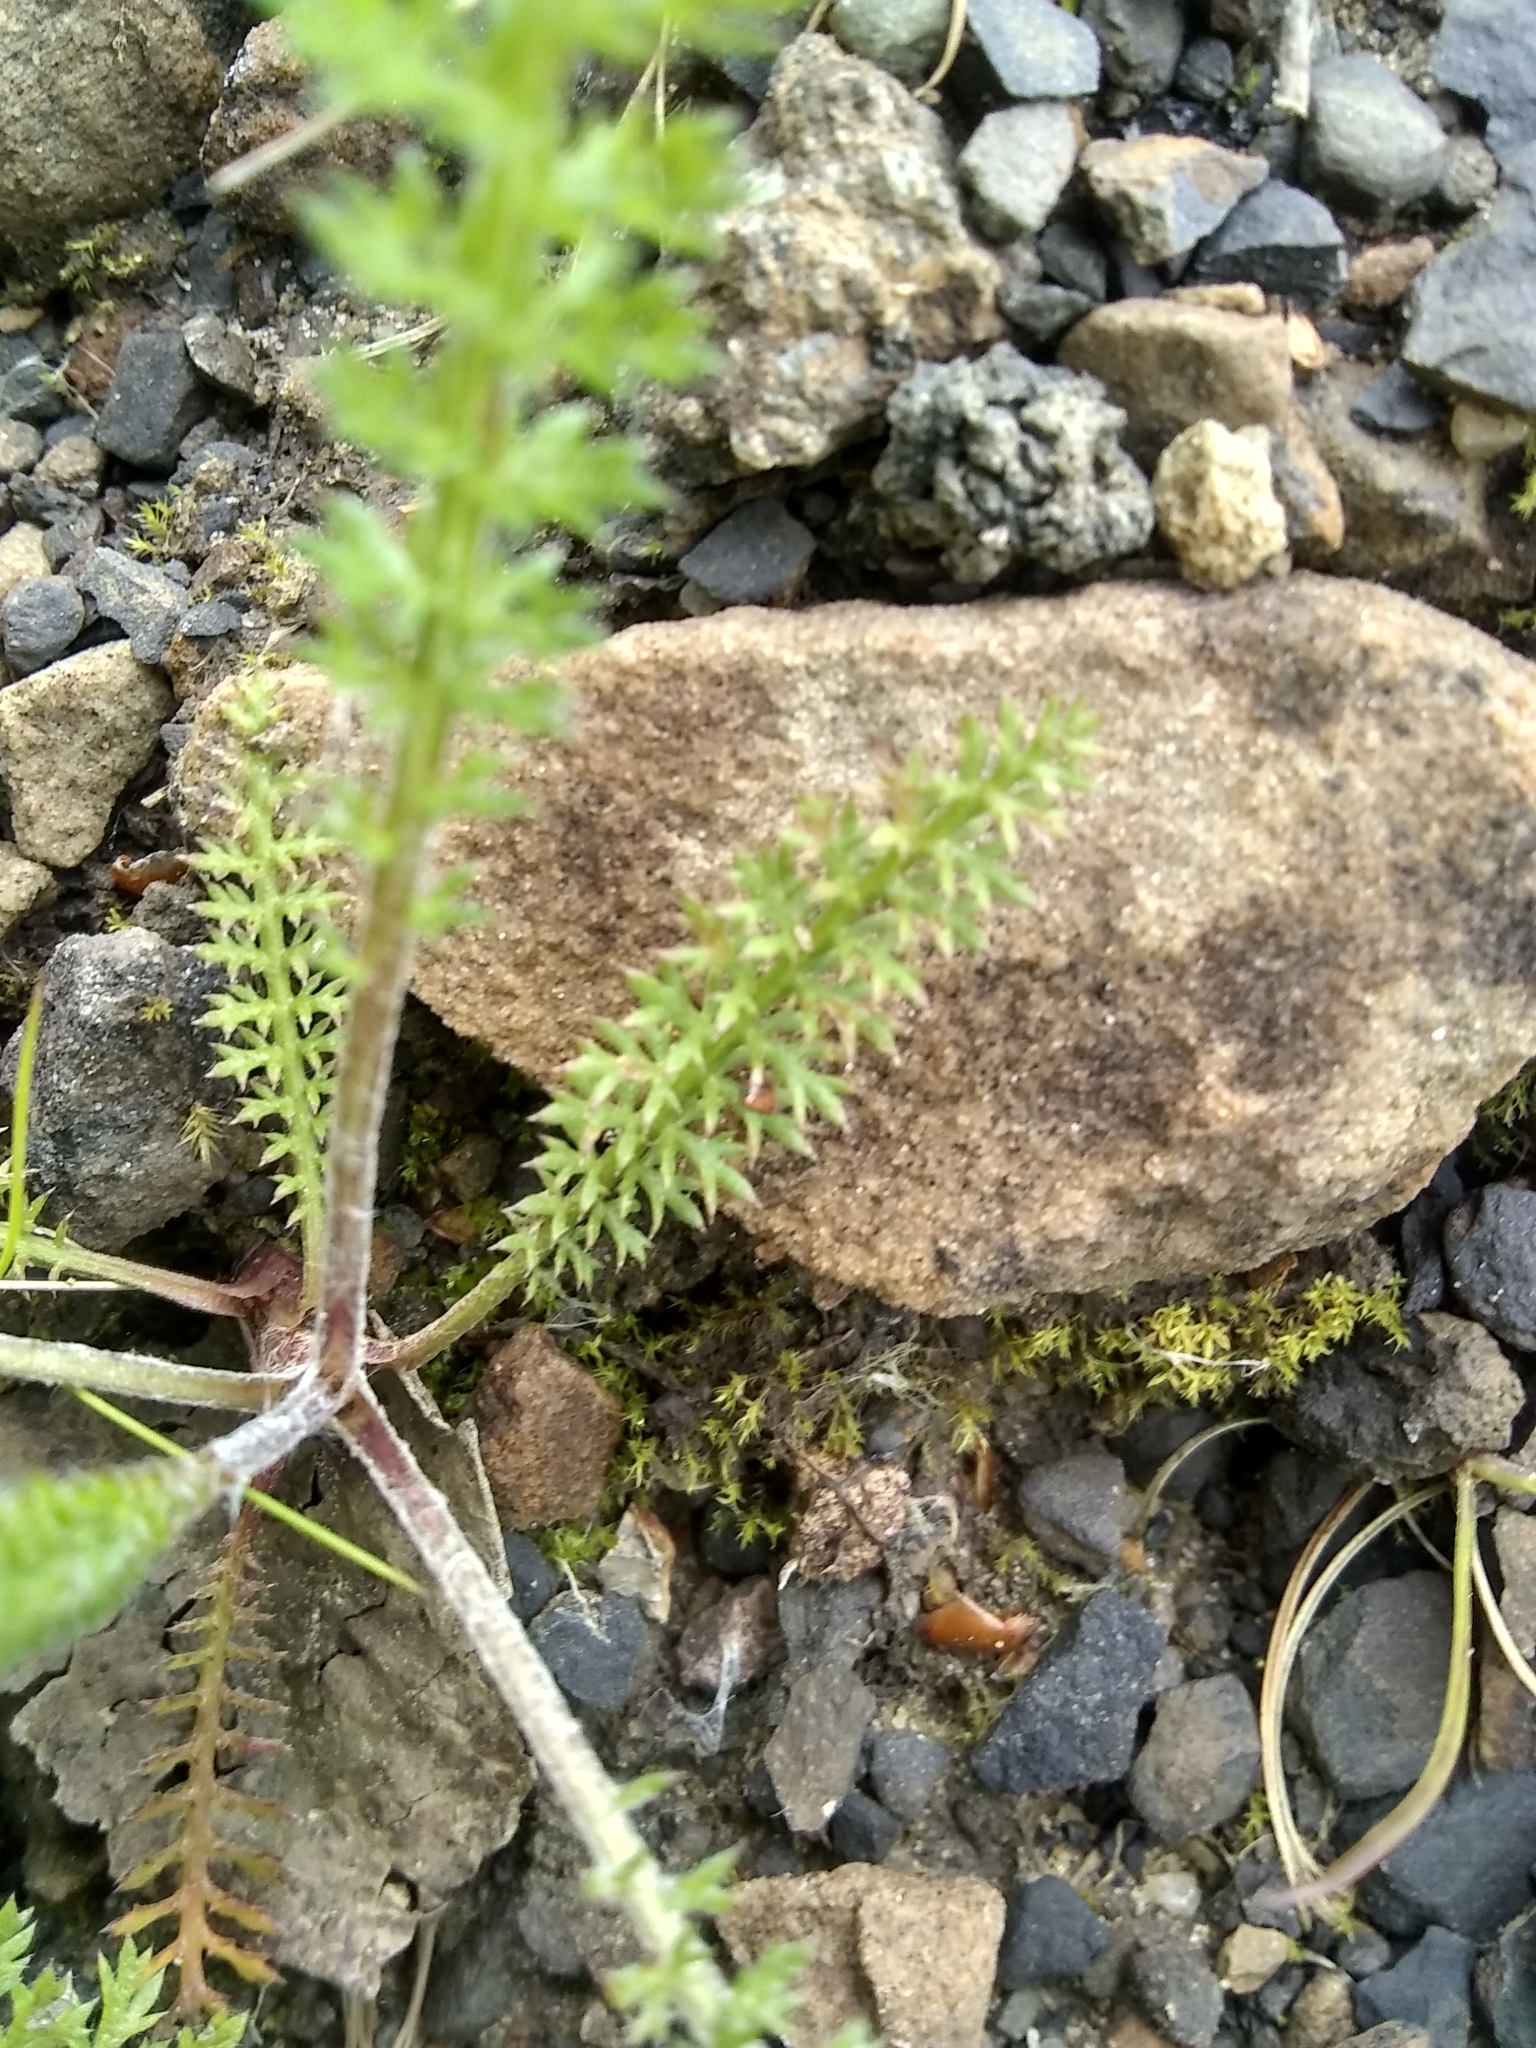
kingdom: Plantae
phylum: Tracheophyta
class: Magnoliopsida
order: Asterales
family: Asteraceae
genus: Achillea
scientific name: Achillea millefolium
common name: Yarrow
